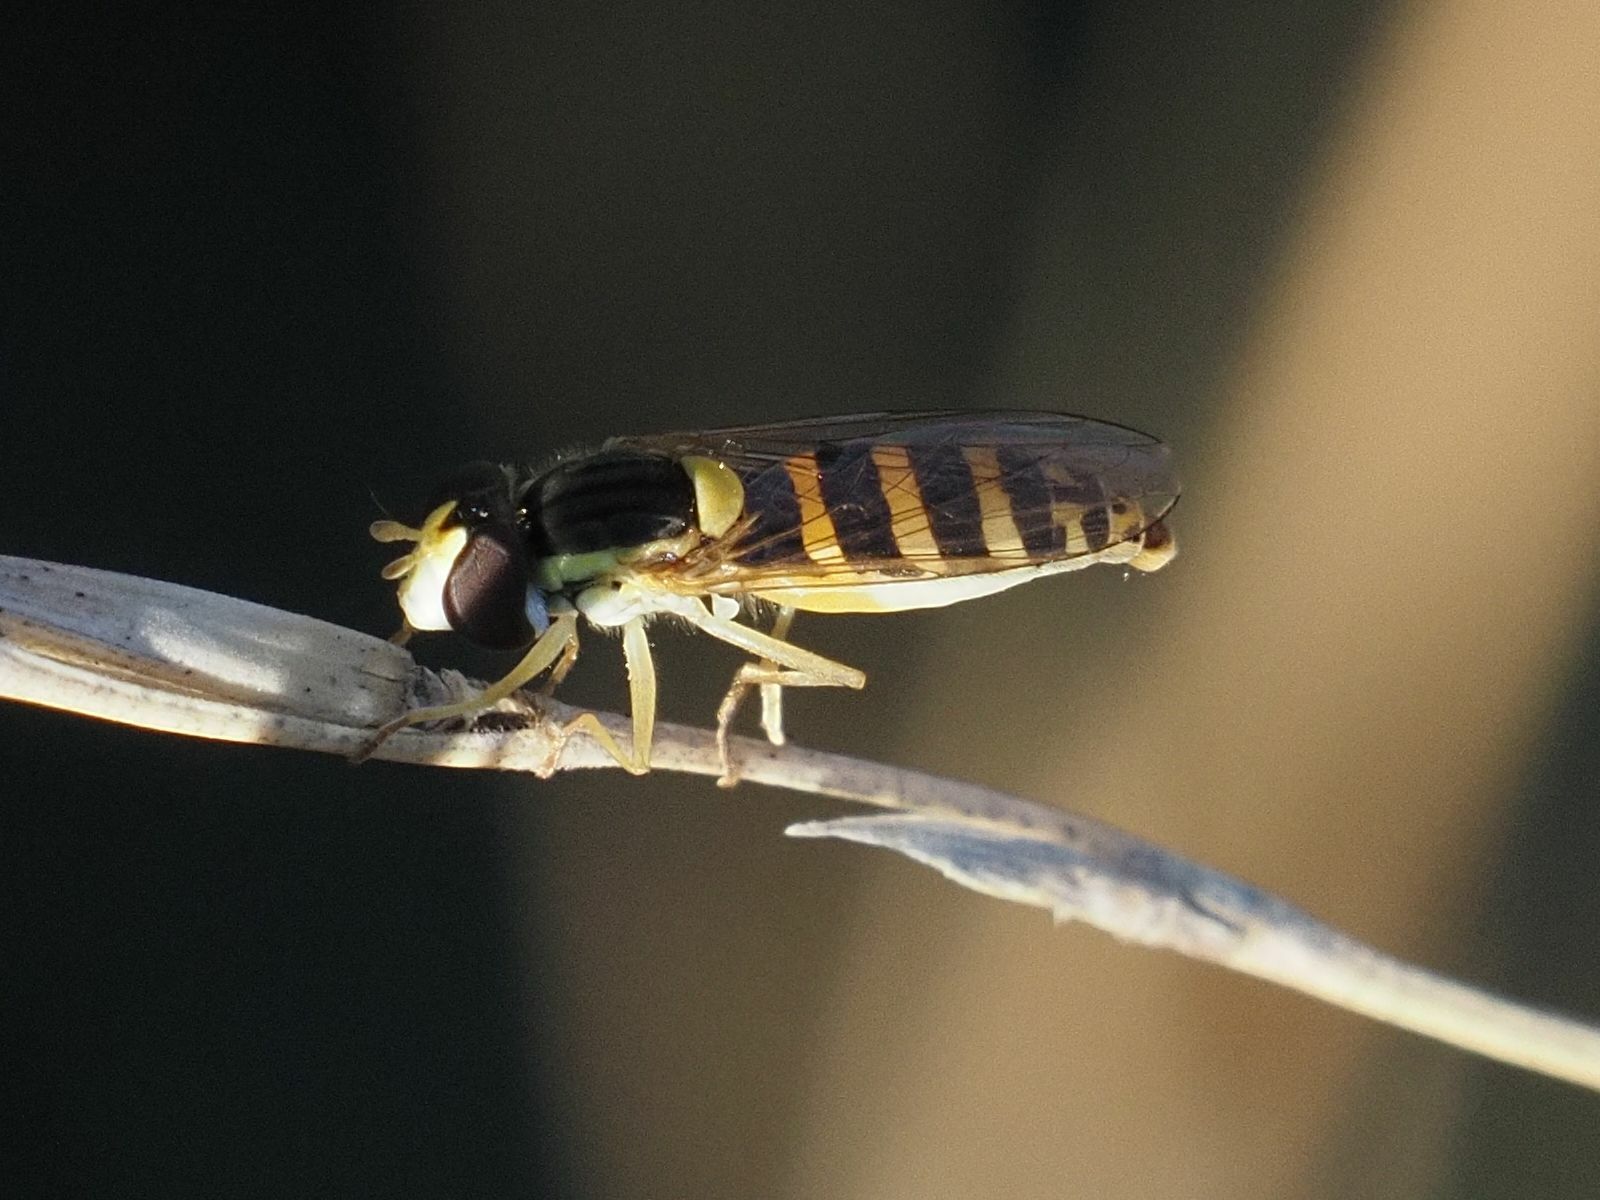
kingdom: Animalia
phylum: Arthropoda
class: Insecta
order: Diptera
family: Syrphidae
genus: Sphaerophoria
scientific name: Sphaerophoria
